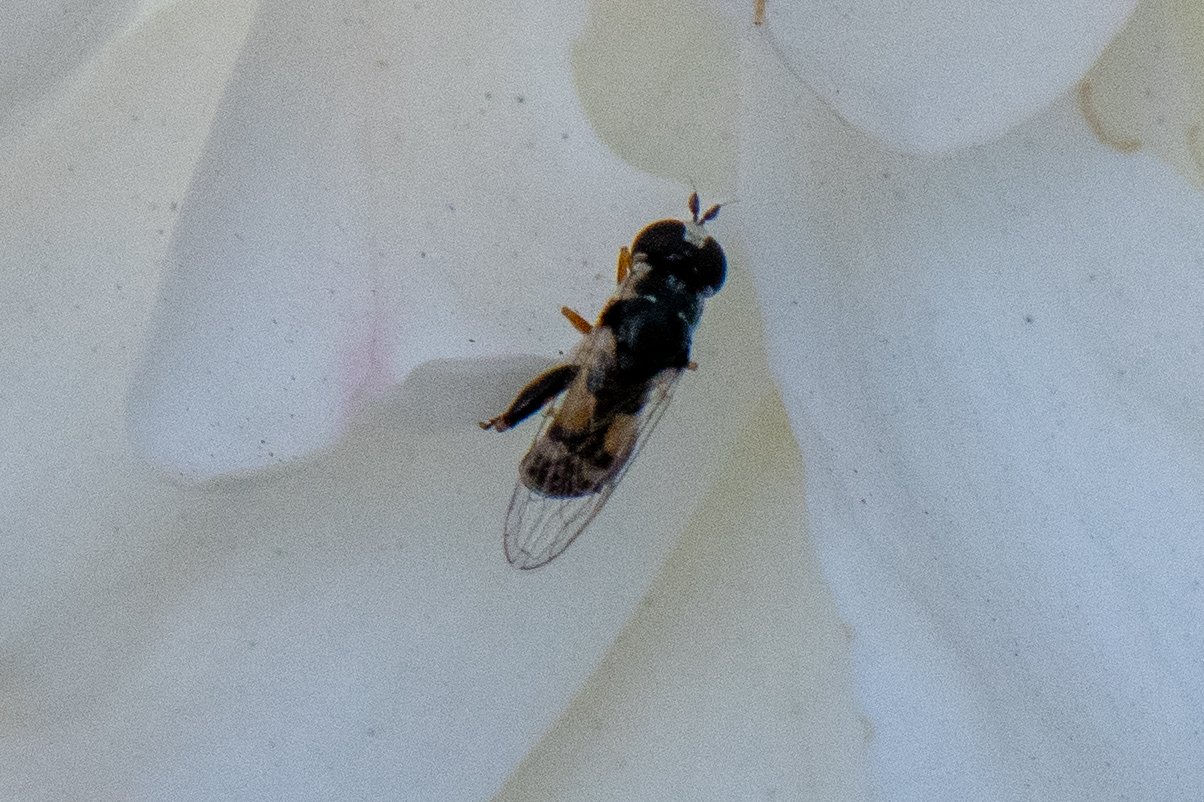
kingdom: Animalia
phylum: Arthropoda
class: Insecta
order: Diptera
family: Syrphidae
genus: Syritta
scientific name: Syritta flaviventris
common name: Syrphid fly
